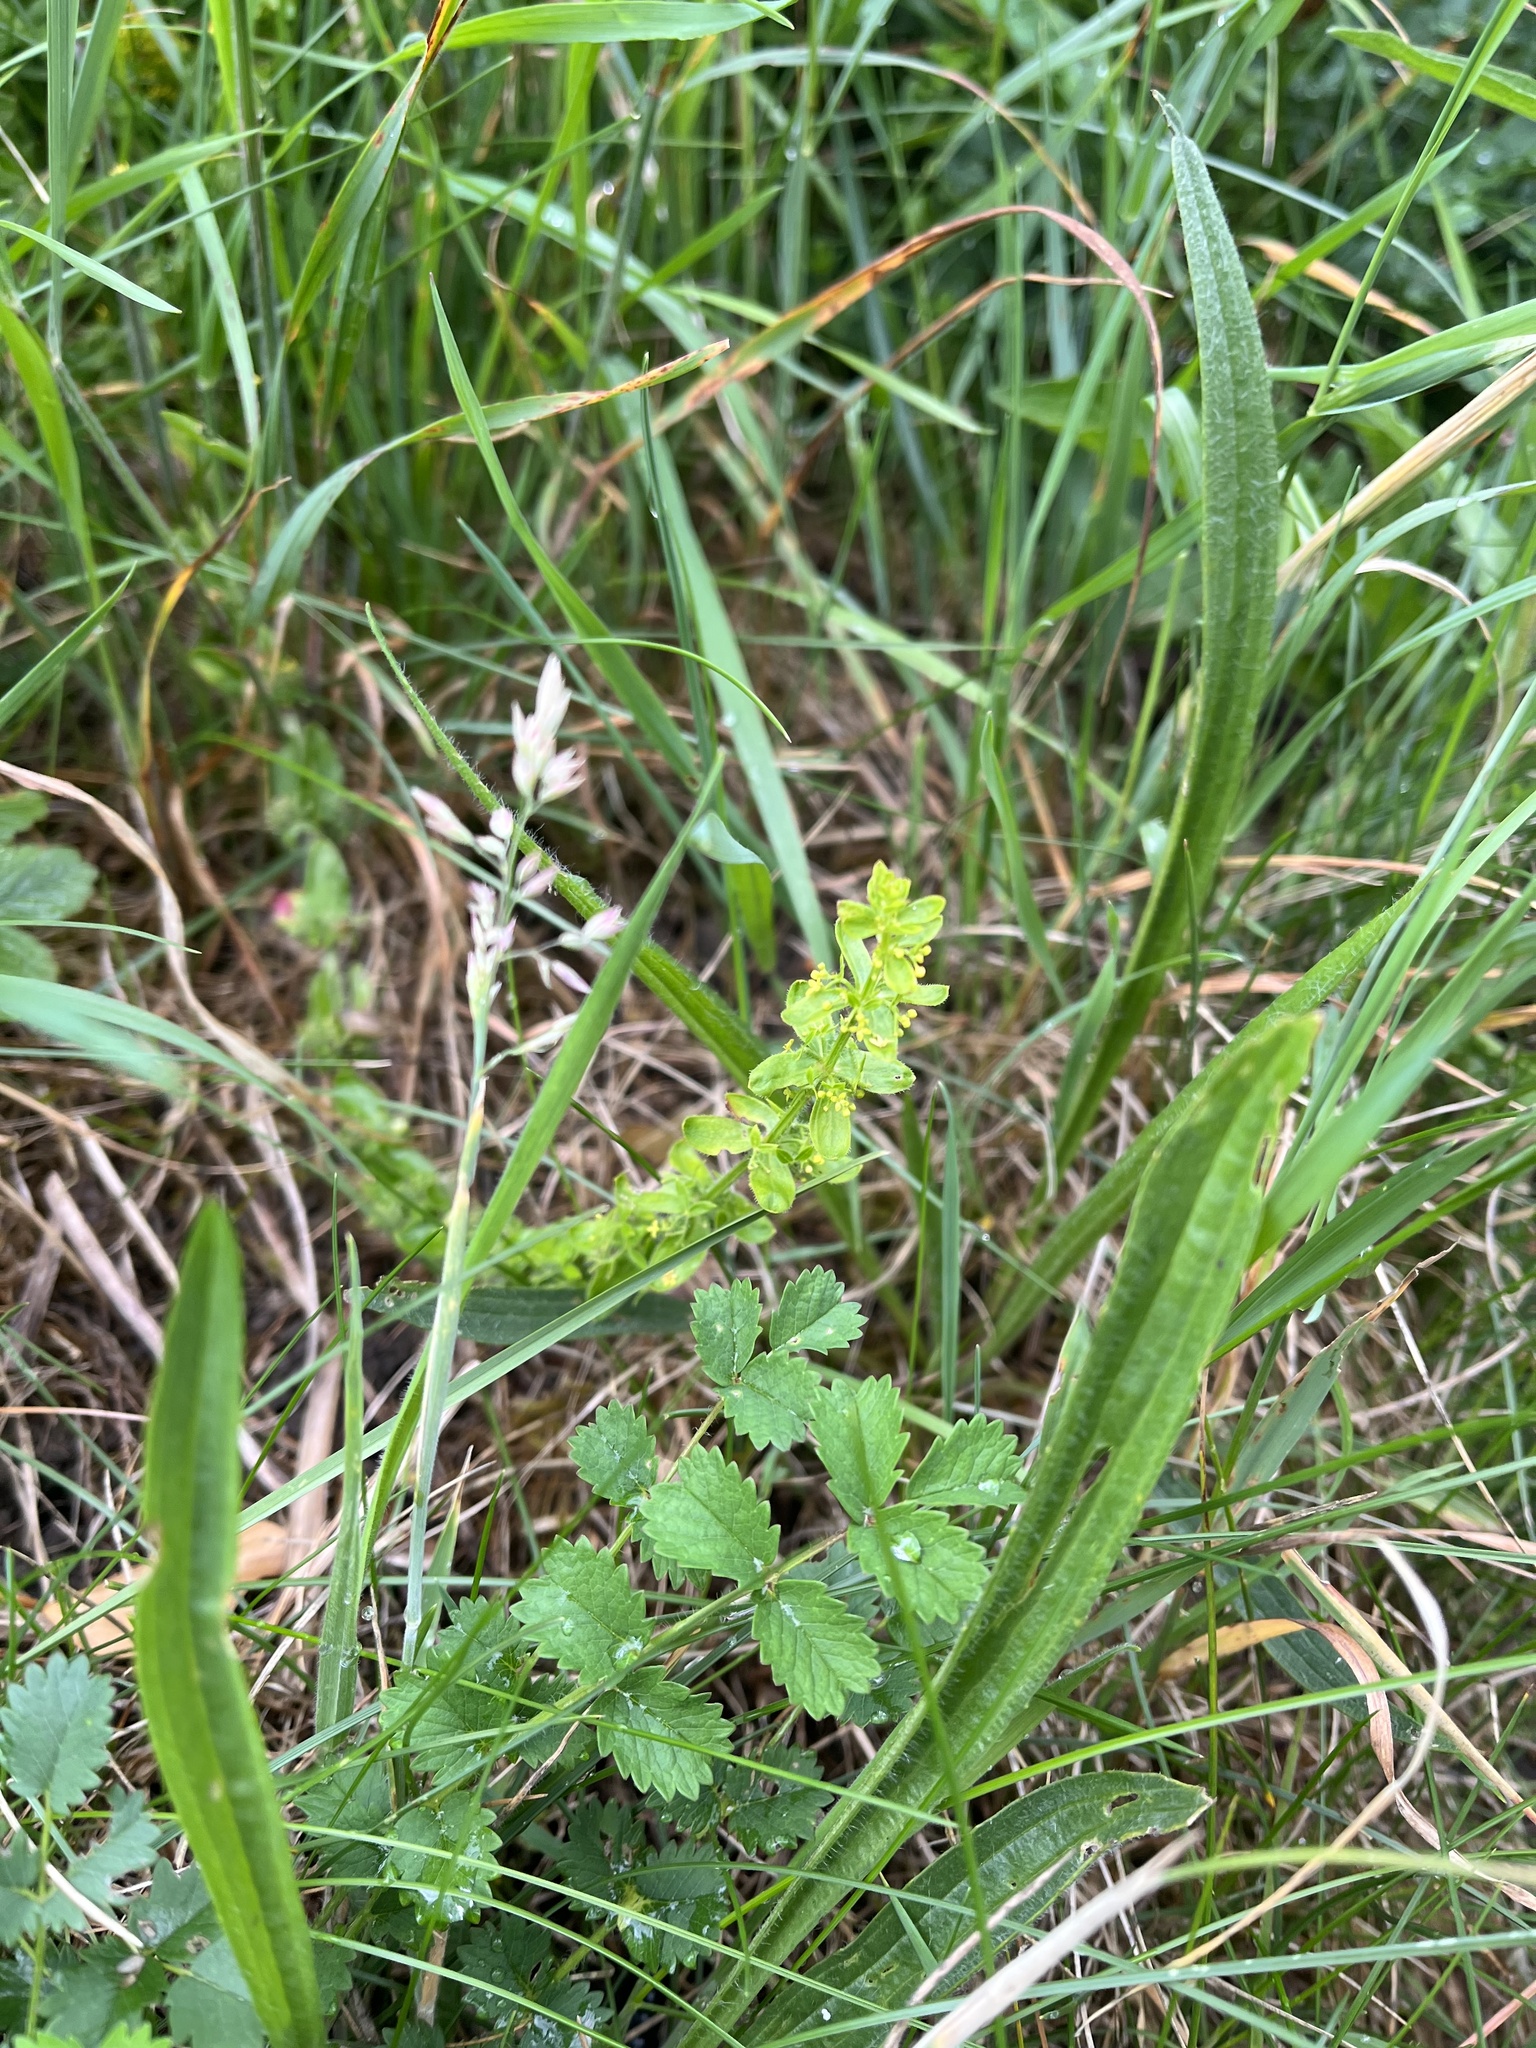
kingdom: Plantae
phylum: Tracheophyta
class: Magnoliopsida
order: Gentianales
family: Rubiaceae
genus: Cruciata
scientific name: Cruciata laevipes
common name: Crosswort
